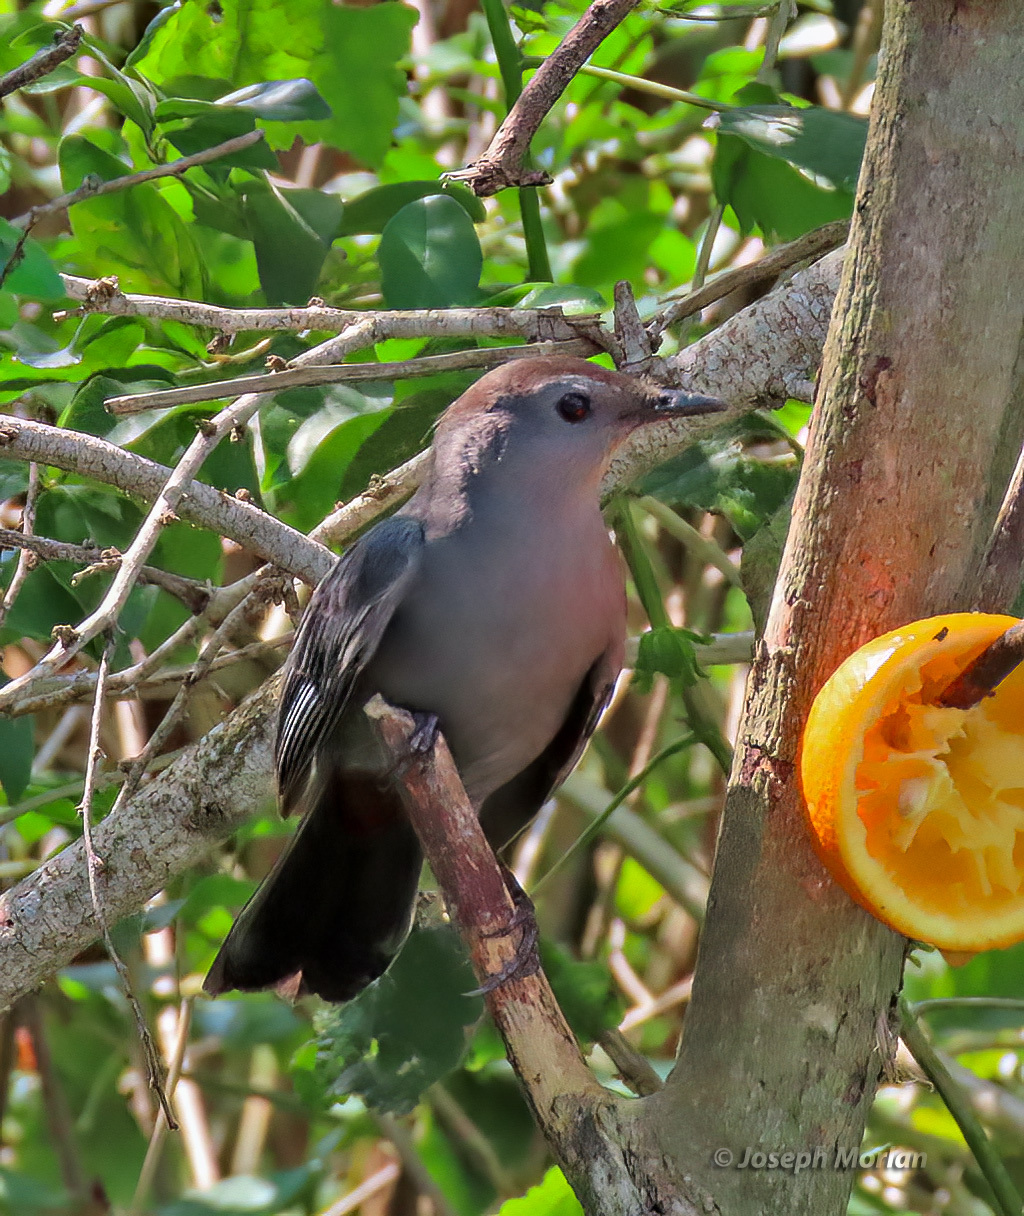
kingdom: Animalia
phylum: Chordata
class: Aves
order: Passeriformes
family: Mimidae
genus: Dumetella
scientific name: Dumetella carolinensis
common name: Gray catbird
